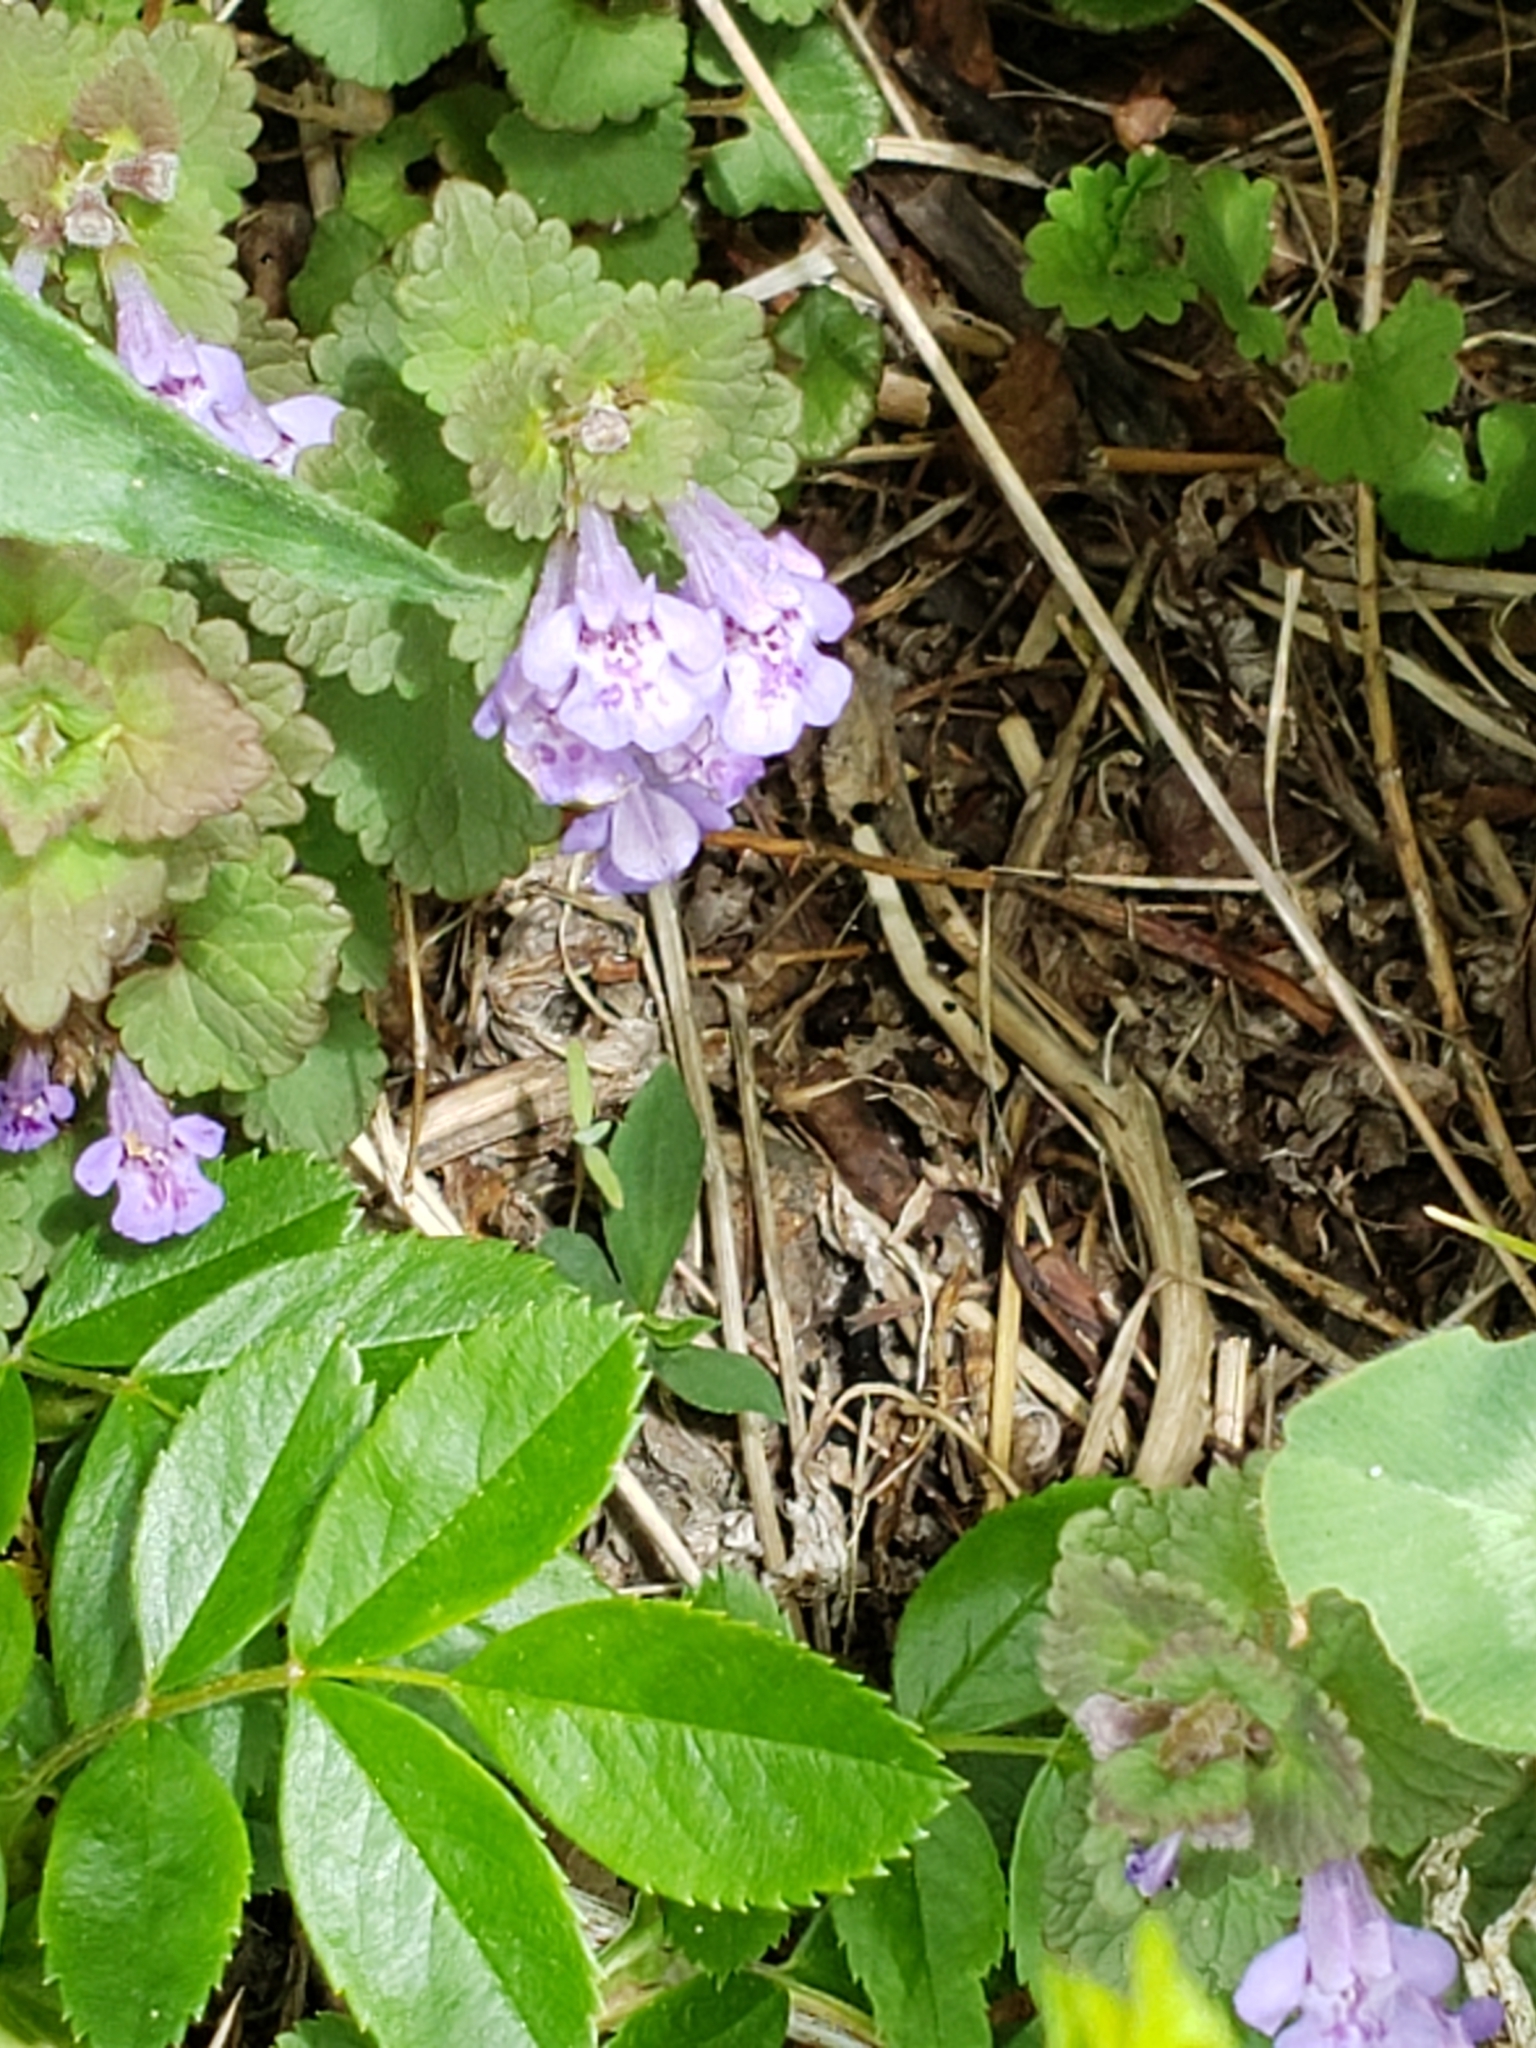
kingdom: Plantae
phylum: Tracheophyta
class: Magnoliopsida
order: Lamiales
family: Lamiaceae
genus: Glechoma
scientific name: Glechoma hederacea
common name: Ground ivy
